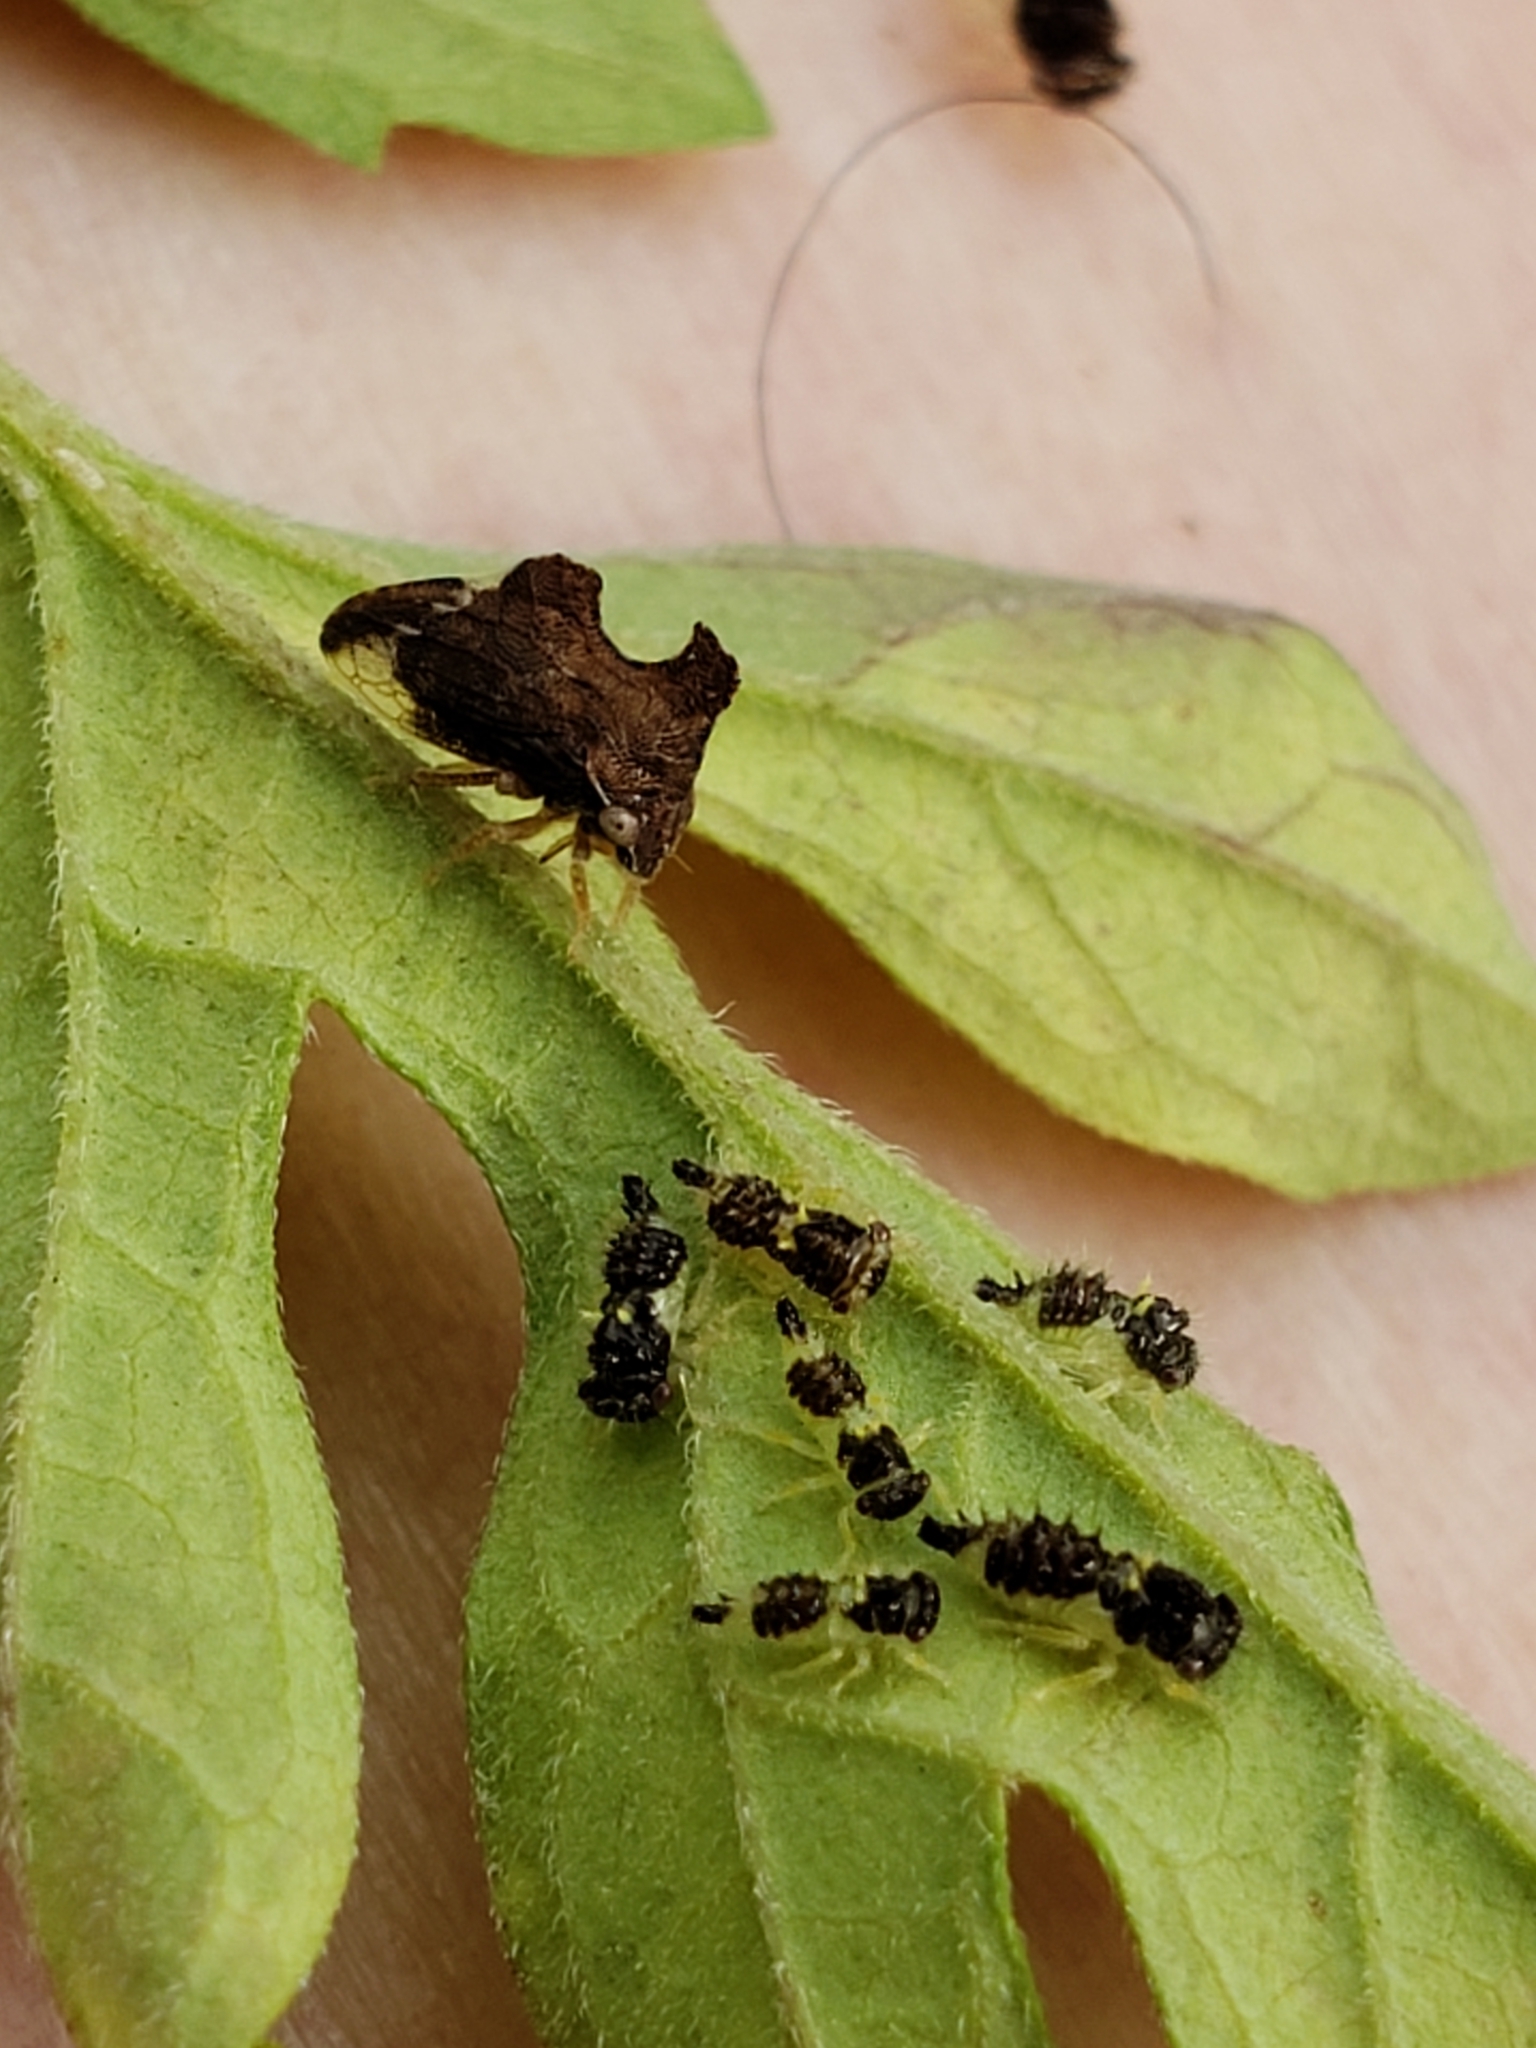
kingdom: Animalia
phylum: Arthropoda
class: Insecta
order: Hemiptera
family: Membracidae
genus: Entylia
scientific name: Entylia carinata
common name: Keeled treehopper
